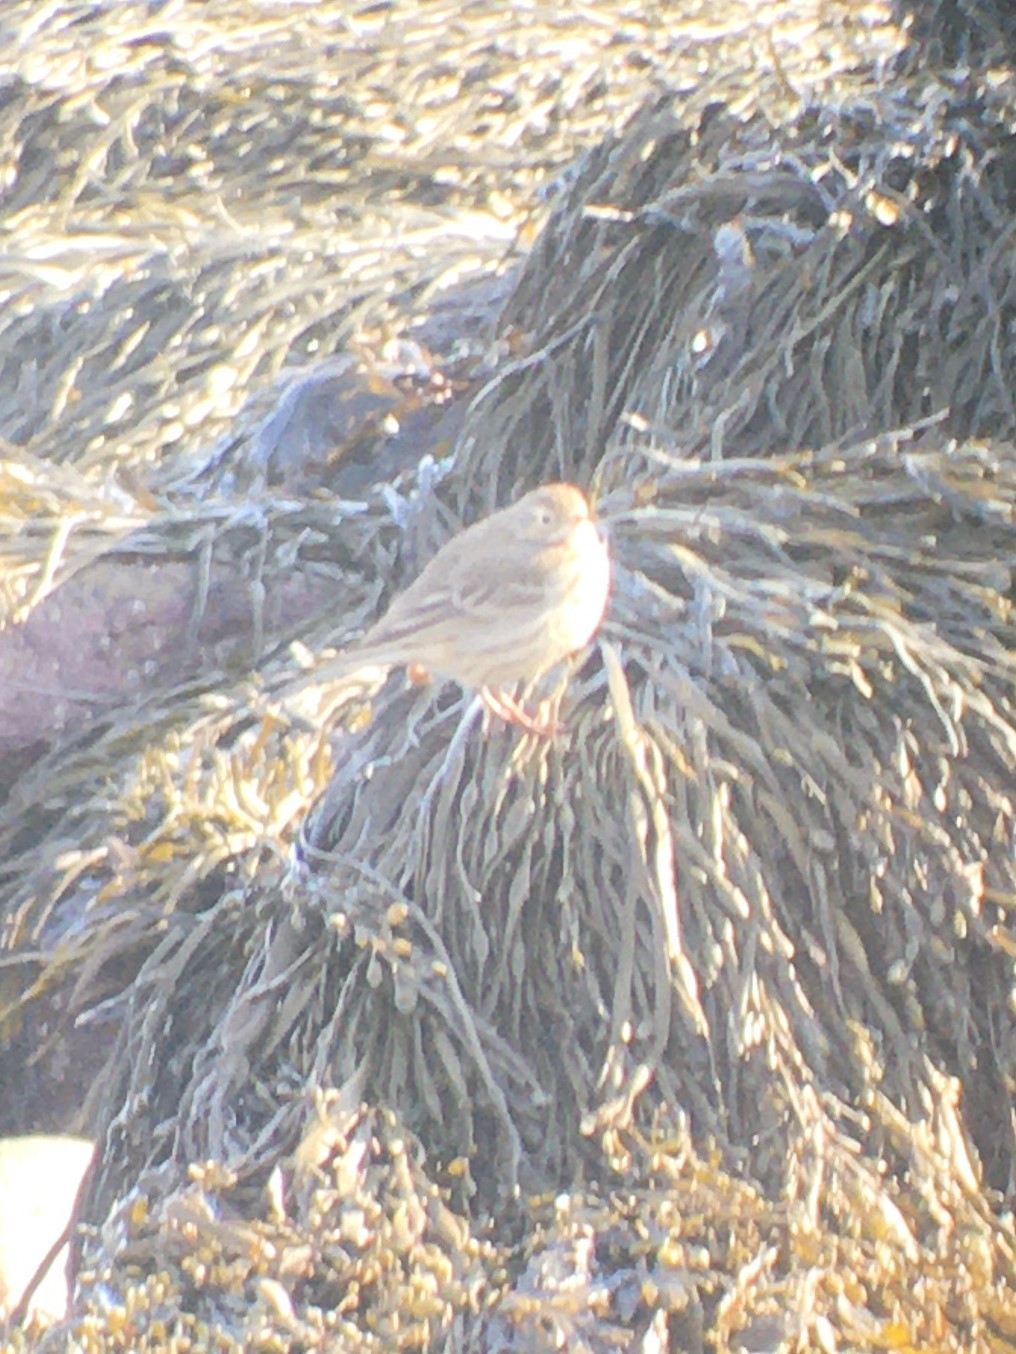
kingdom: Animalia
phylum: Chordata
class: Aves
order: Passeriformes
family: Motacillidae
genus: Anthus
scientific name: Anthus rubescens
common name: Buff-bellied pipit
